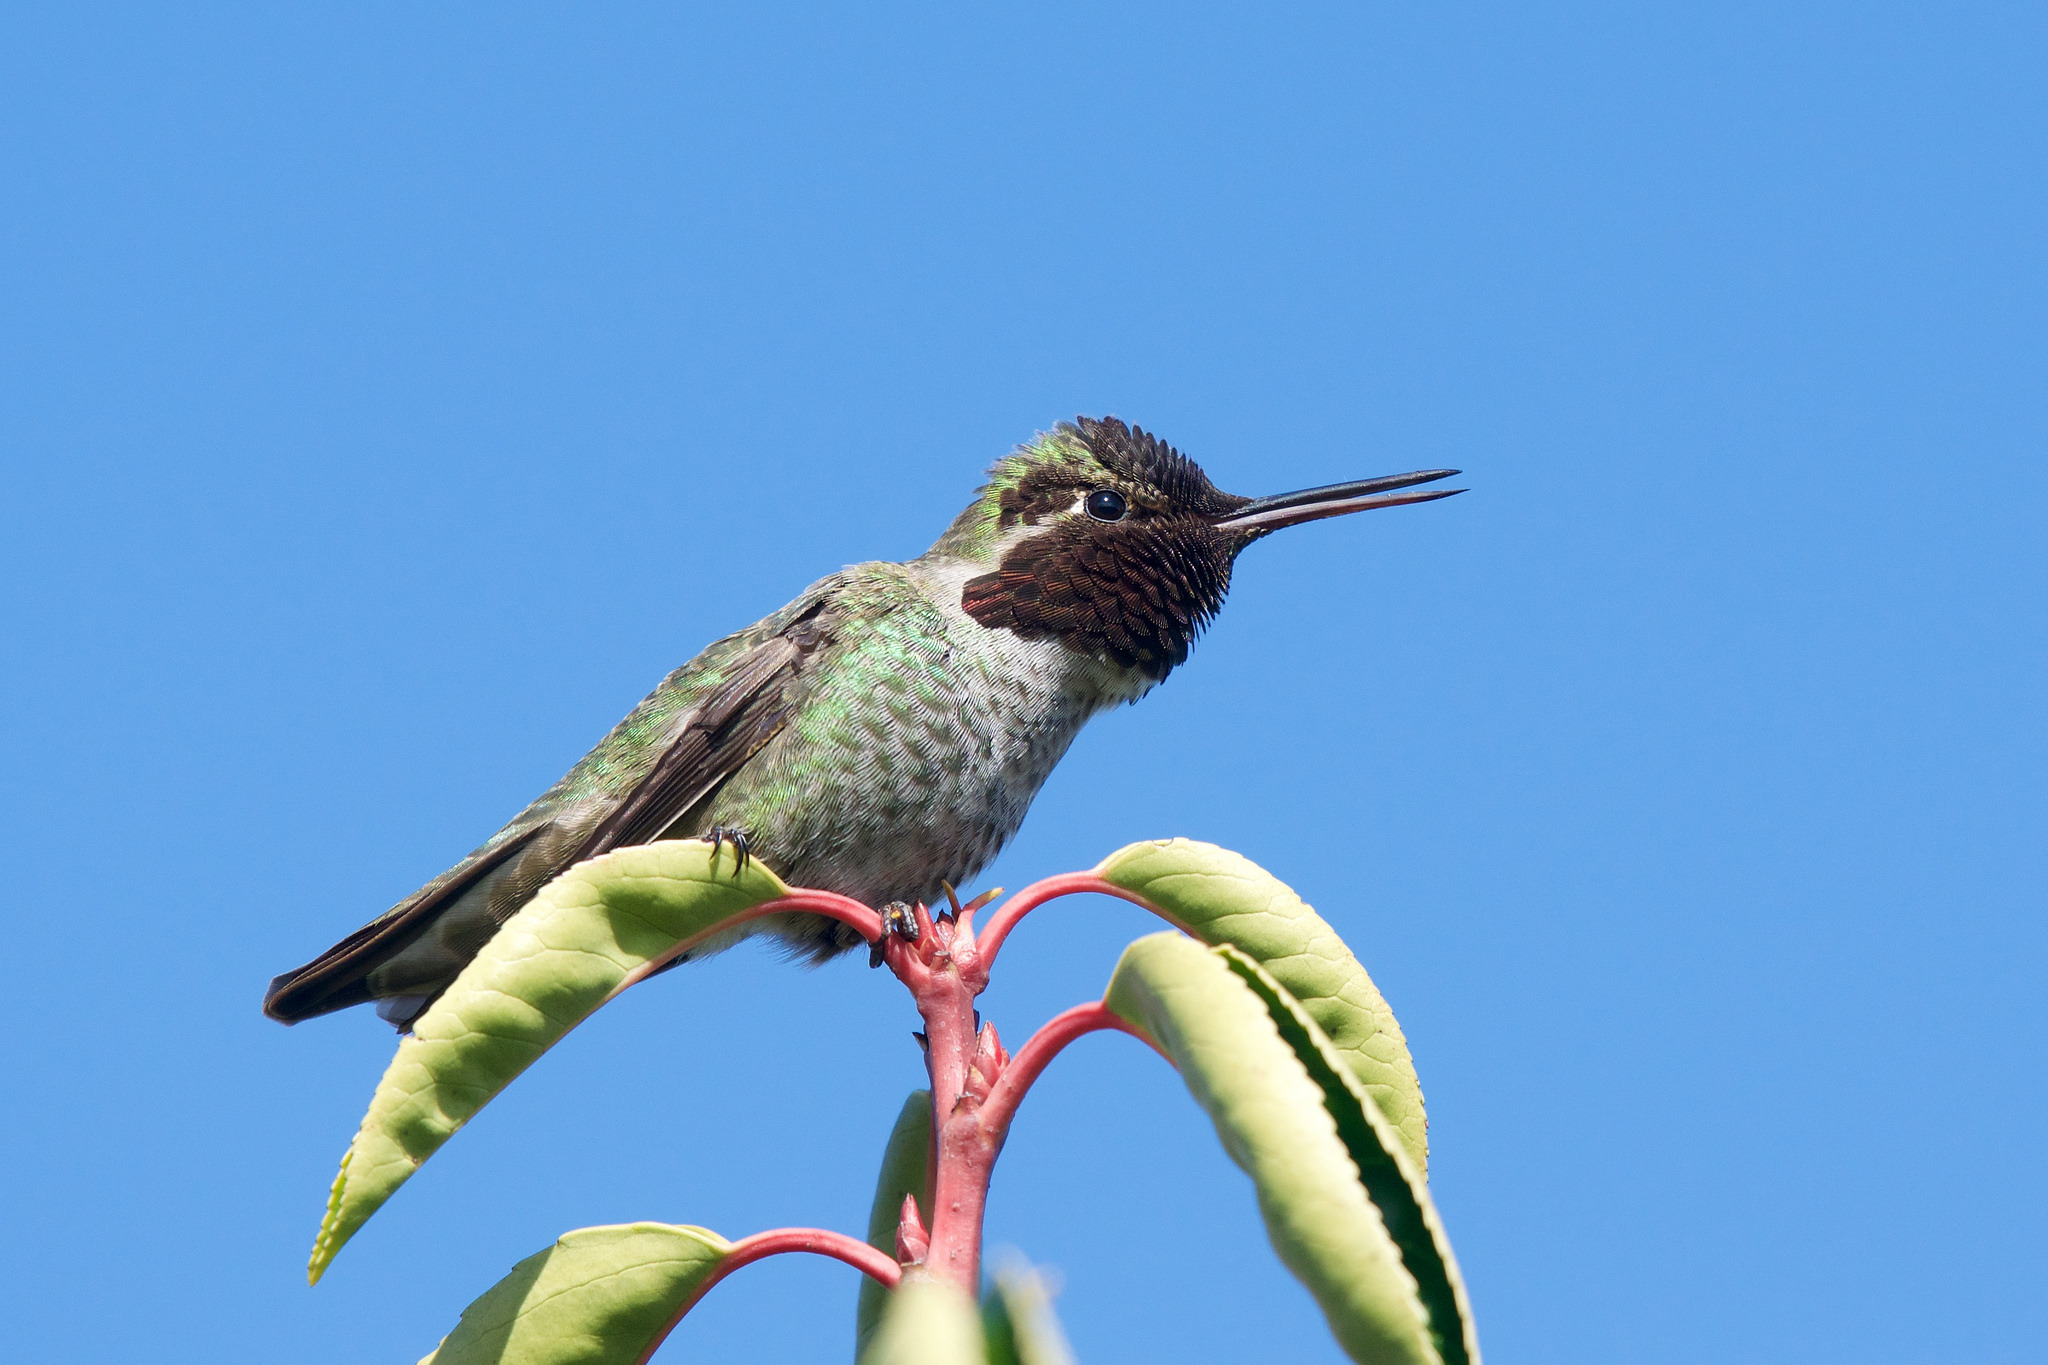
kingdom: Animalia
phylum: Chordata
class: Aves
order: Apodiformes
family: Trochilidae
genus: Calypte
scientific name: Calypte anna
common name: Anna's hummingbird
